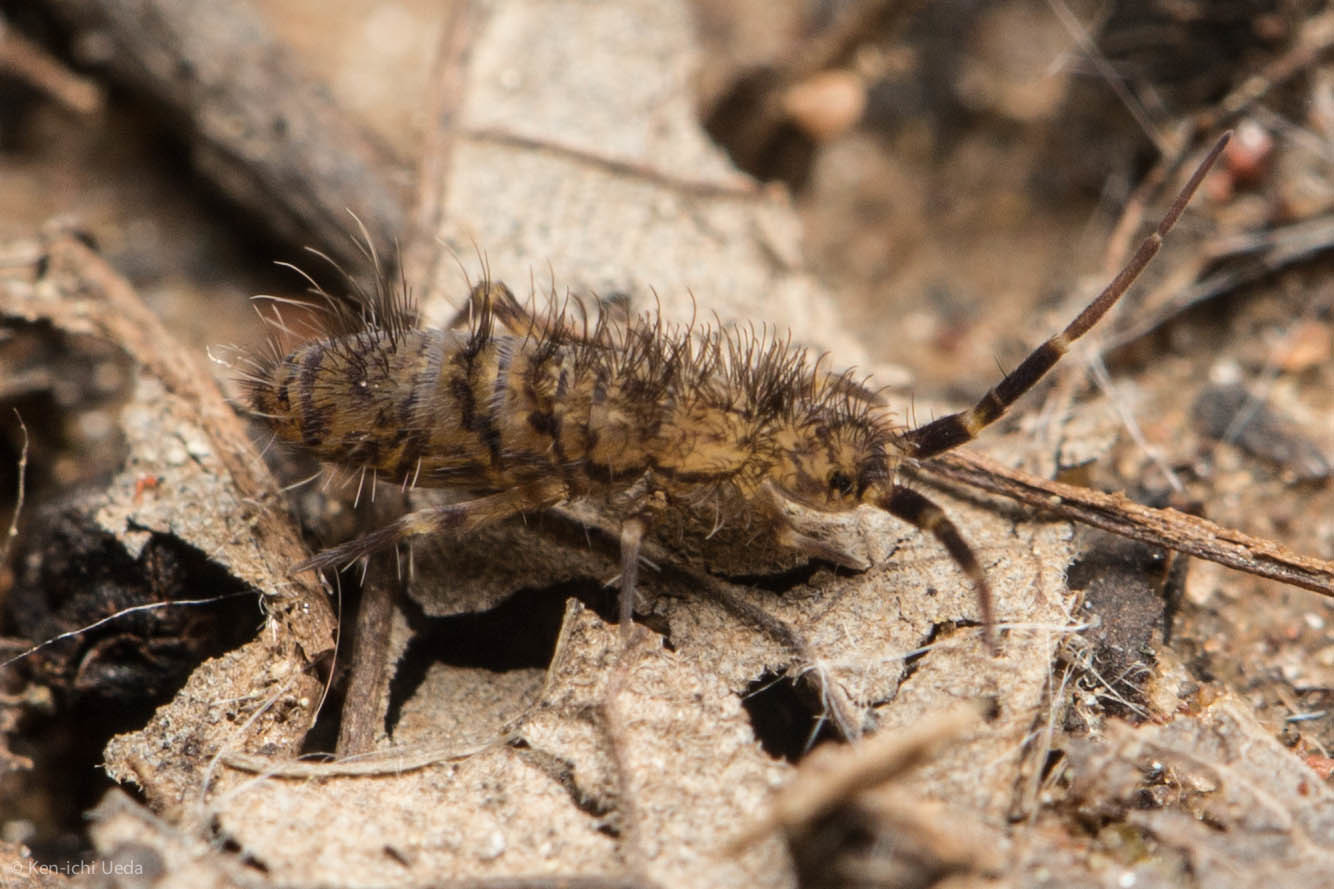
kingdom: Animalia
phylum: Arthropoda
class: Collembola
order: Entomobryomorpha
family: Orchesellidae
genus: Orchesella
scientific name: Orchesella villosa
